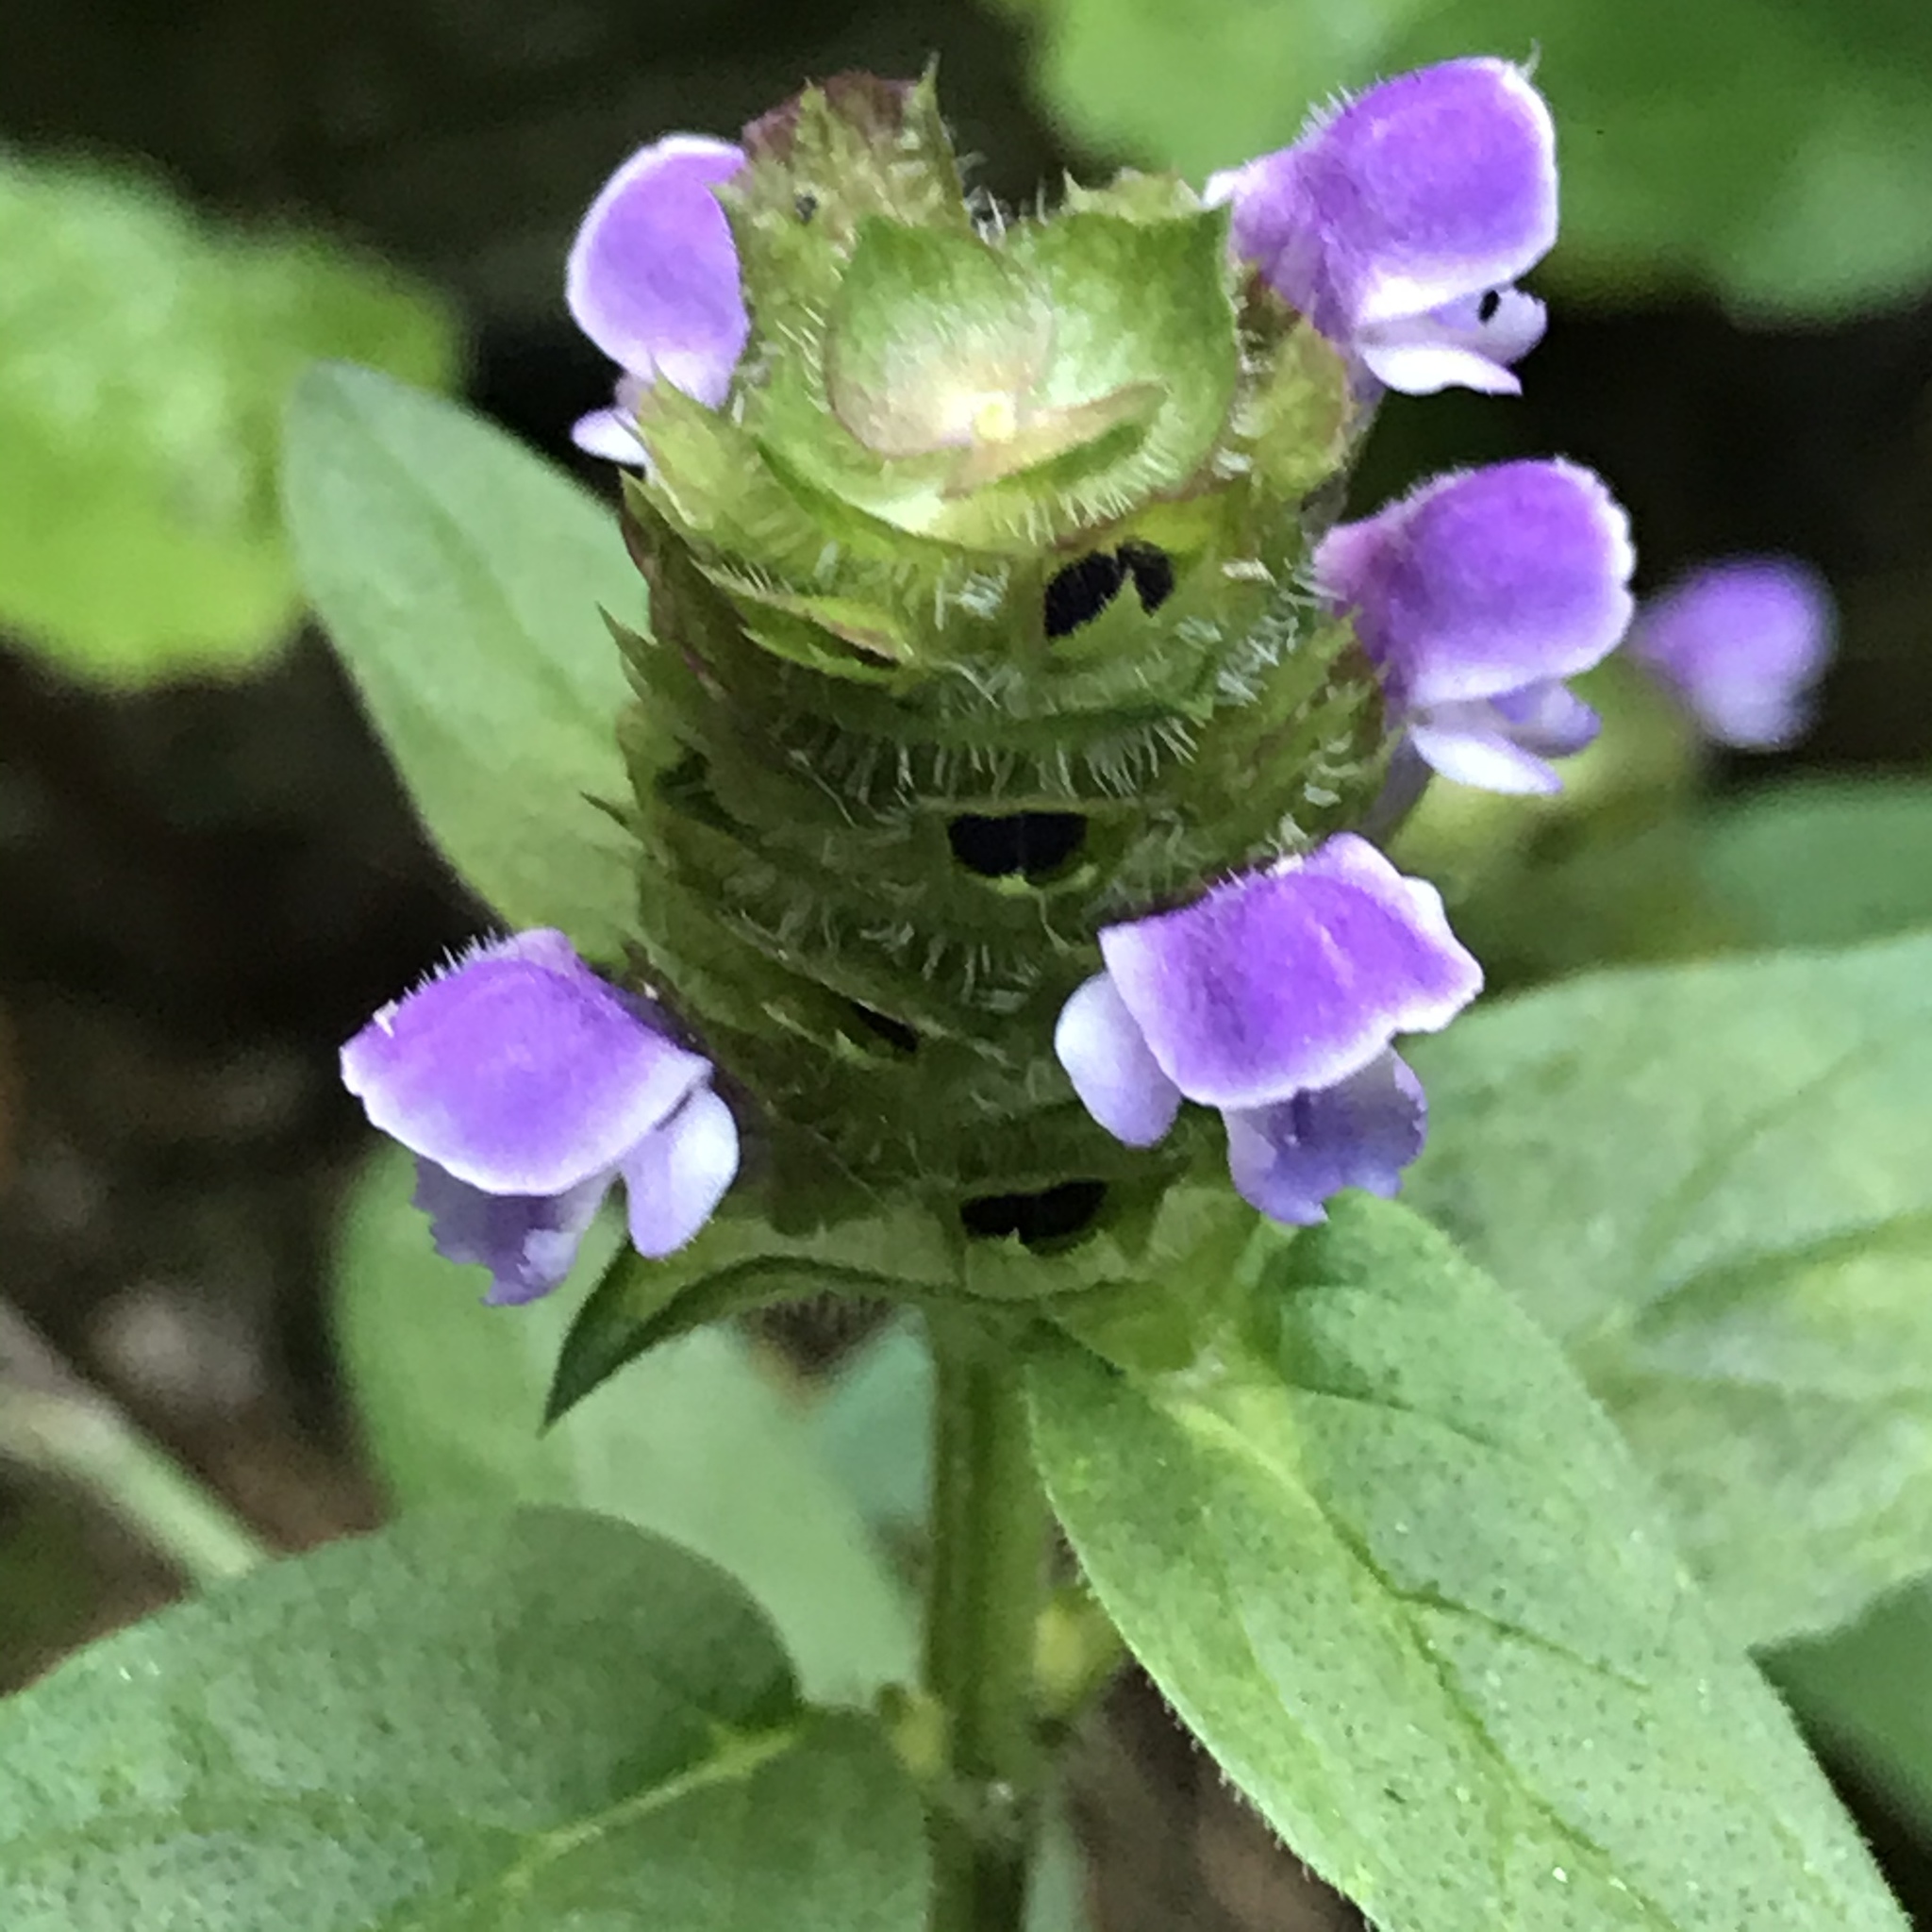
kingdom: Plantae
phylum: Tracheophyta
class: Magnoliopsida
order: Lamiales
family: Lamiaceae
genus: Prunella
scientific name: Prunella vulgaris
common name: Heal-all
